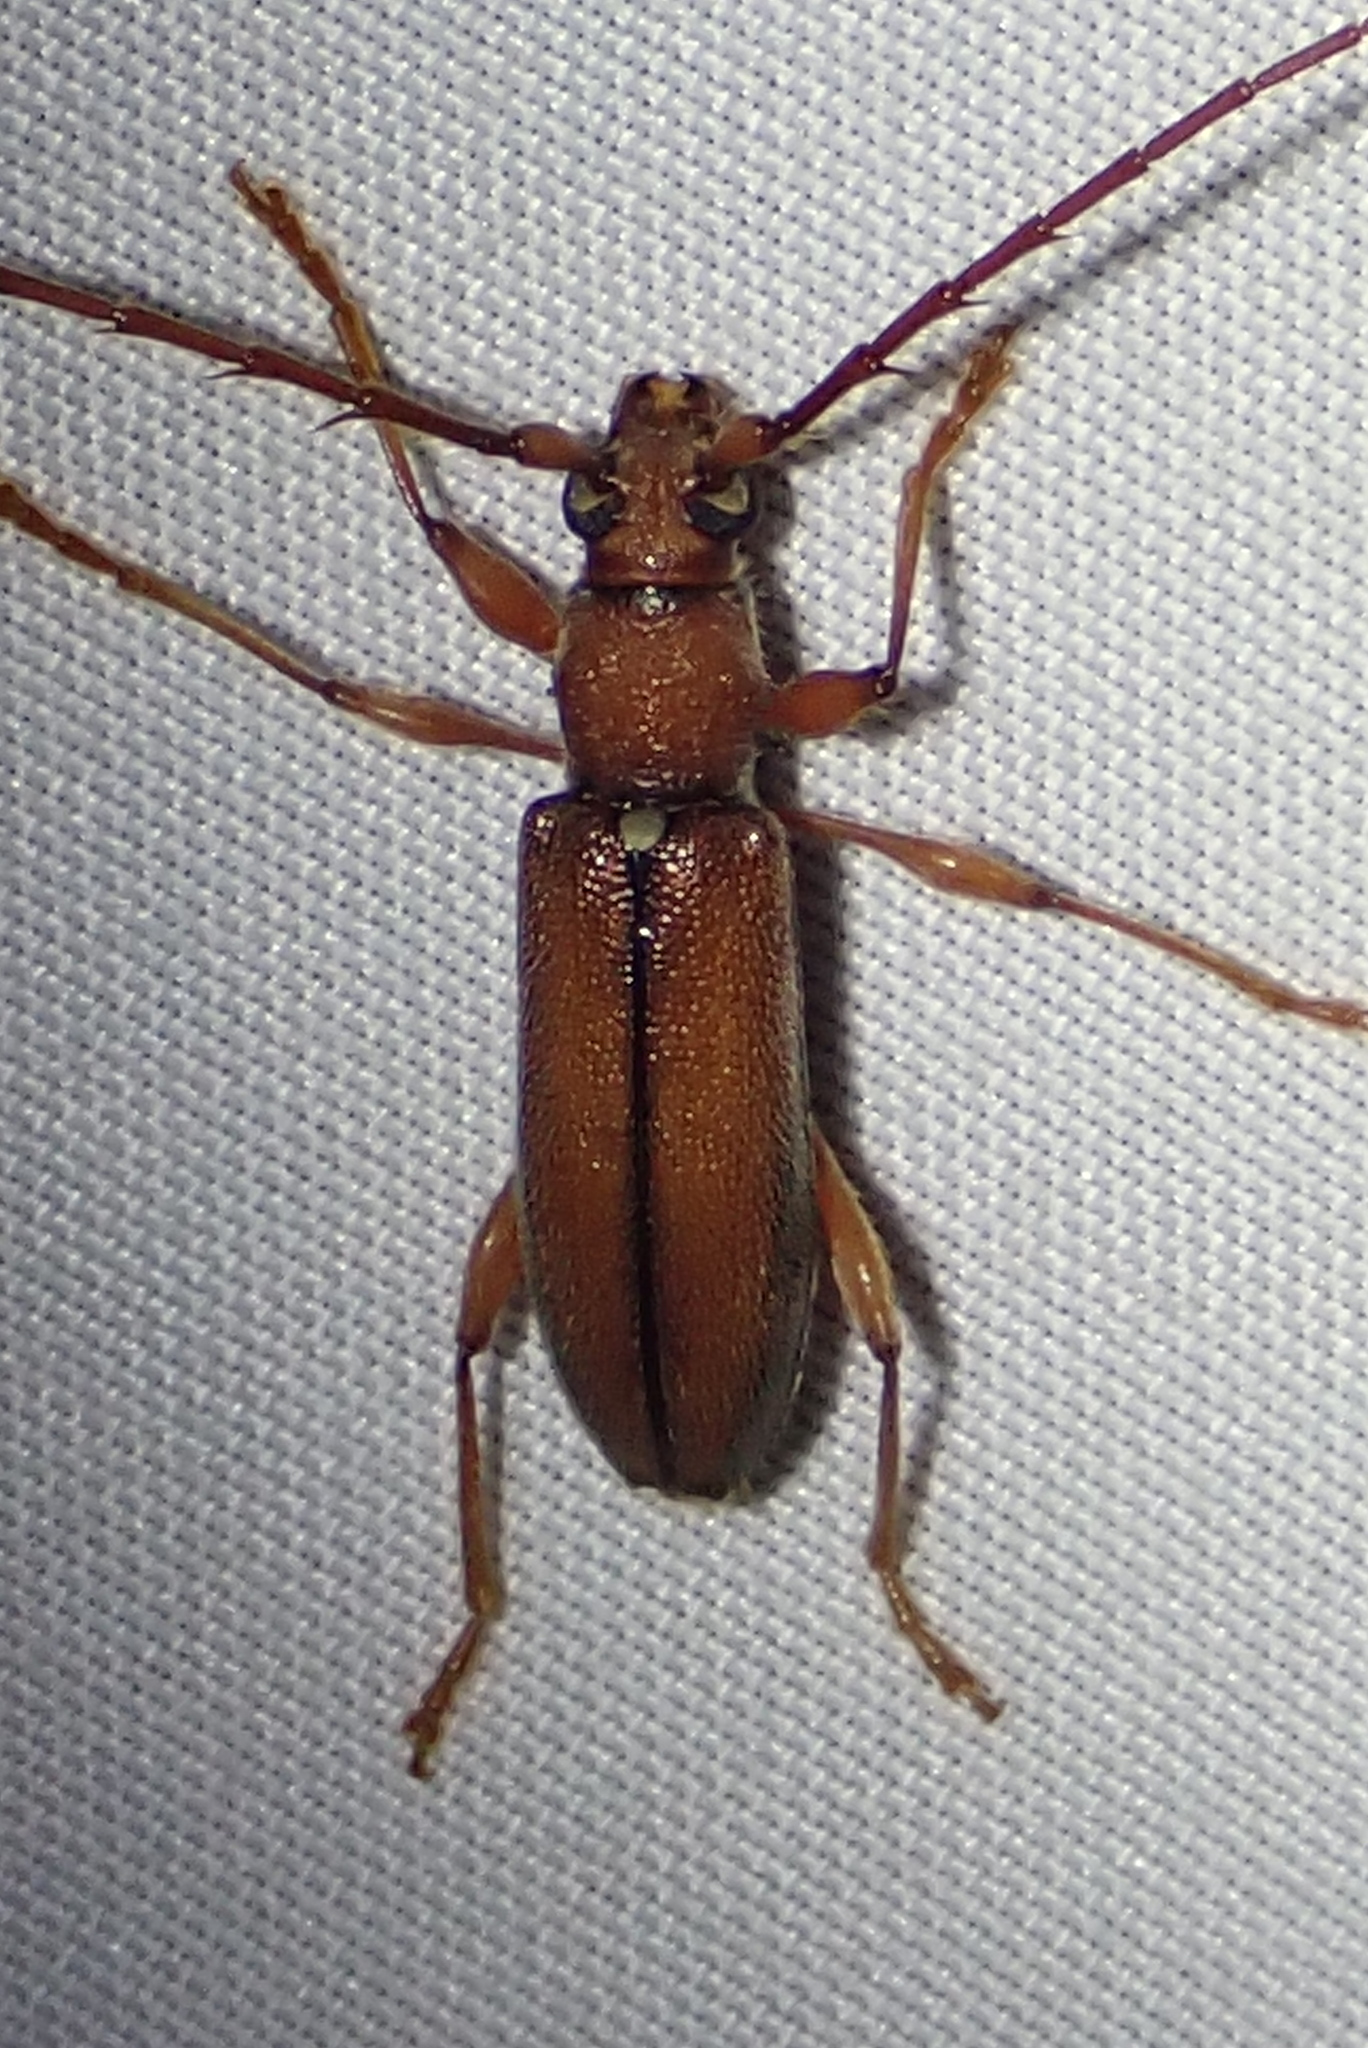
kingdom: Animalia
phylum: Arthropoda
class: Insecta
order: Coleoptera
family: Cerambycidae
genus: Miltesthus
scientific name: Miltesthus marginatus
